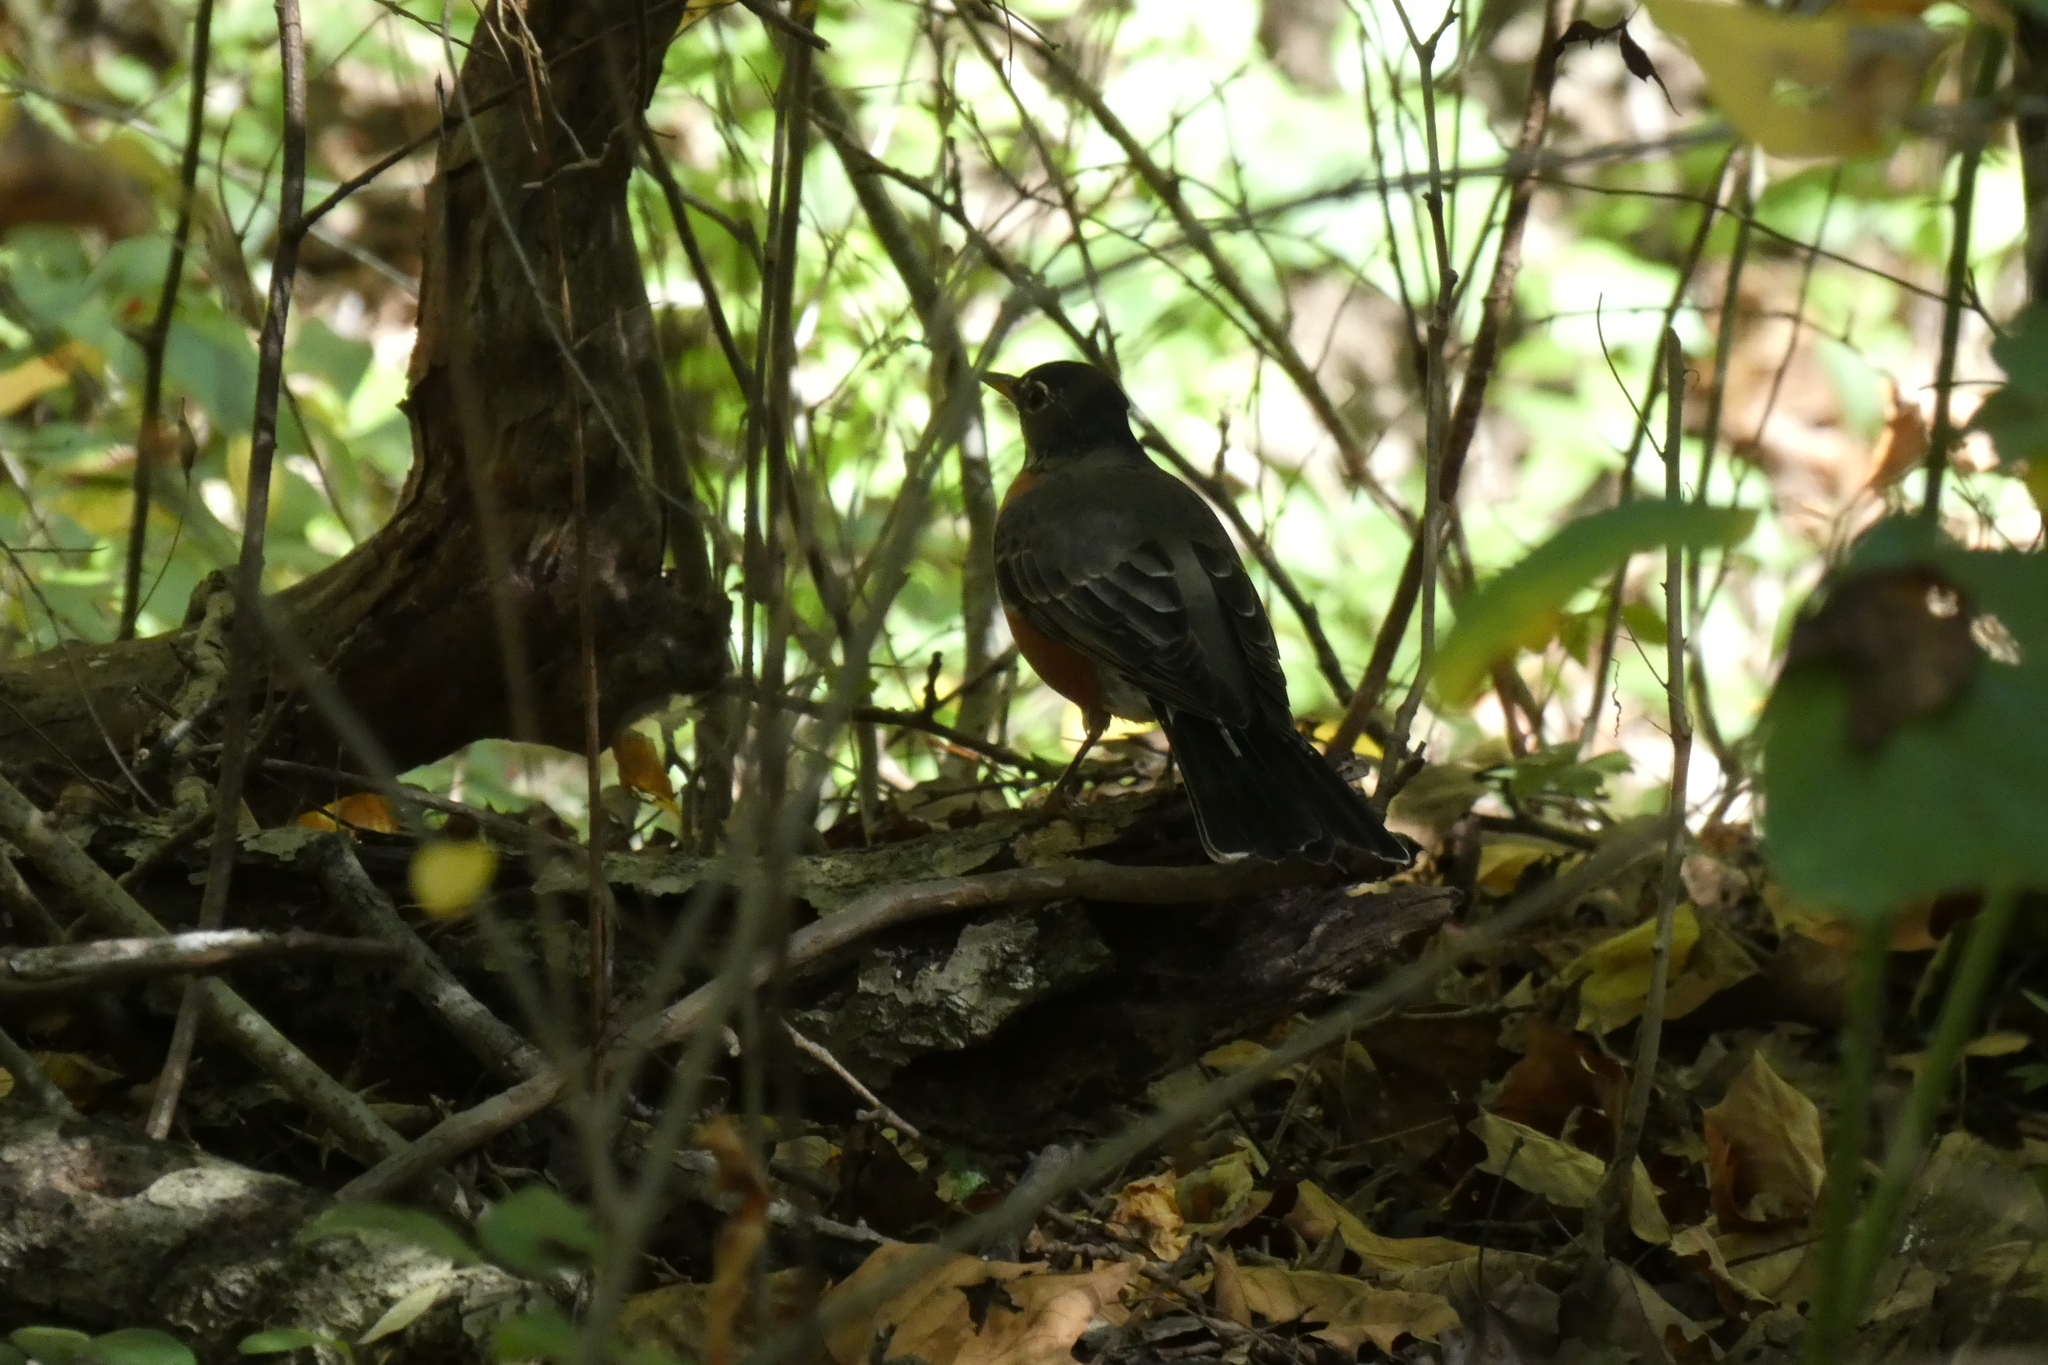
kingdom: Animalia
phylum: Chordata
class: Aves
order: Passeriformes
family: Turdidae
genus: Turdus
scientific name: Turdus migratorius
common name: American robin
